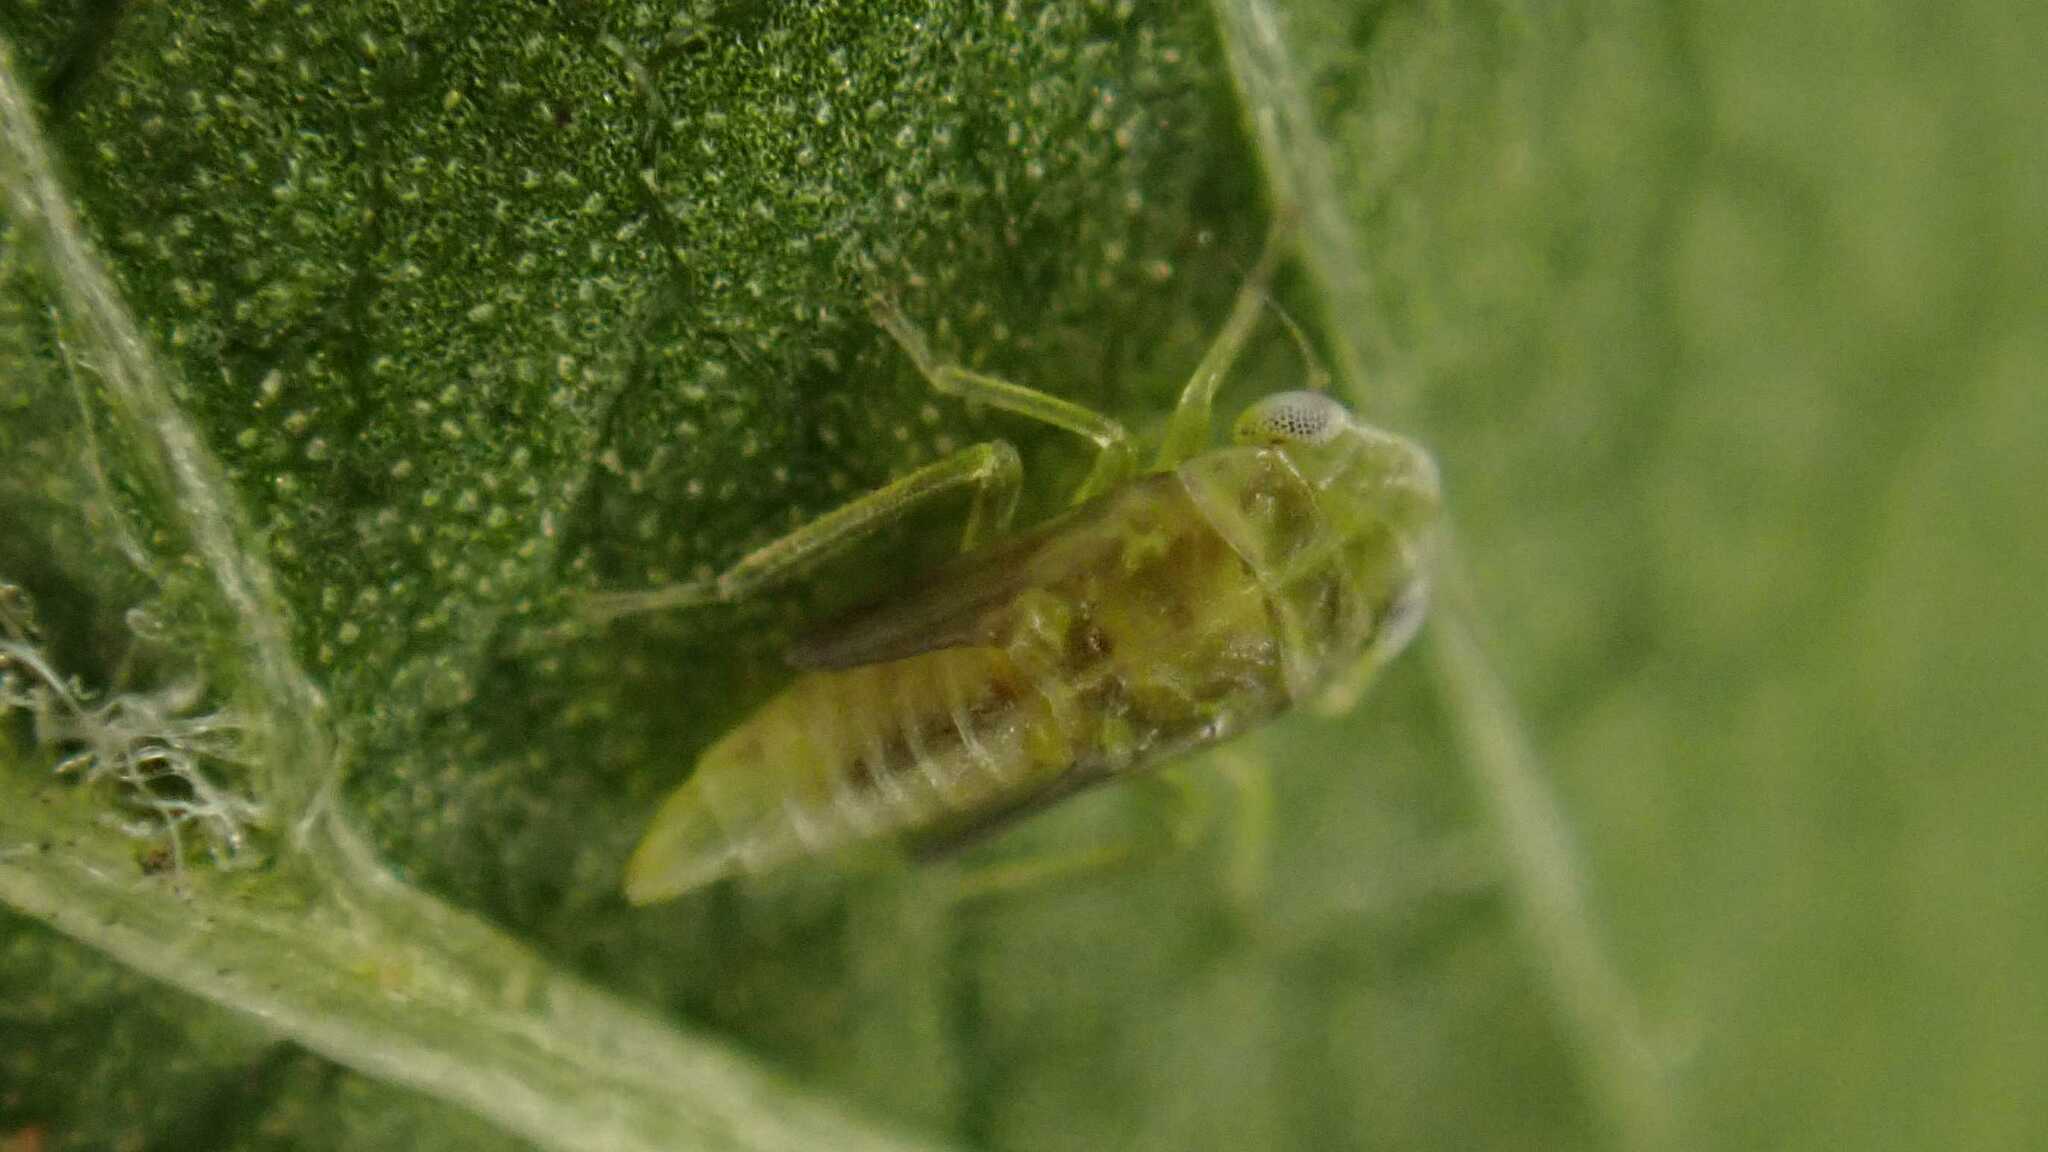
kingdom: Animalia
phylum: Arthropoda
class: Insecta
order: Hemiptera
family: Cicadellidae
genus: Tautoneura
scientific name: Tautoneura polymitusa
